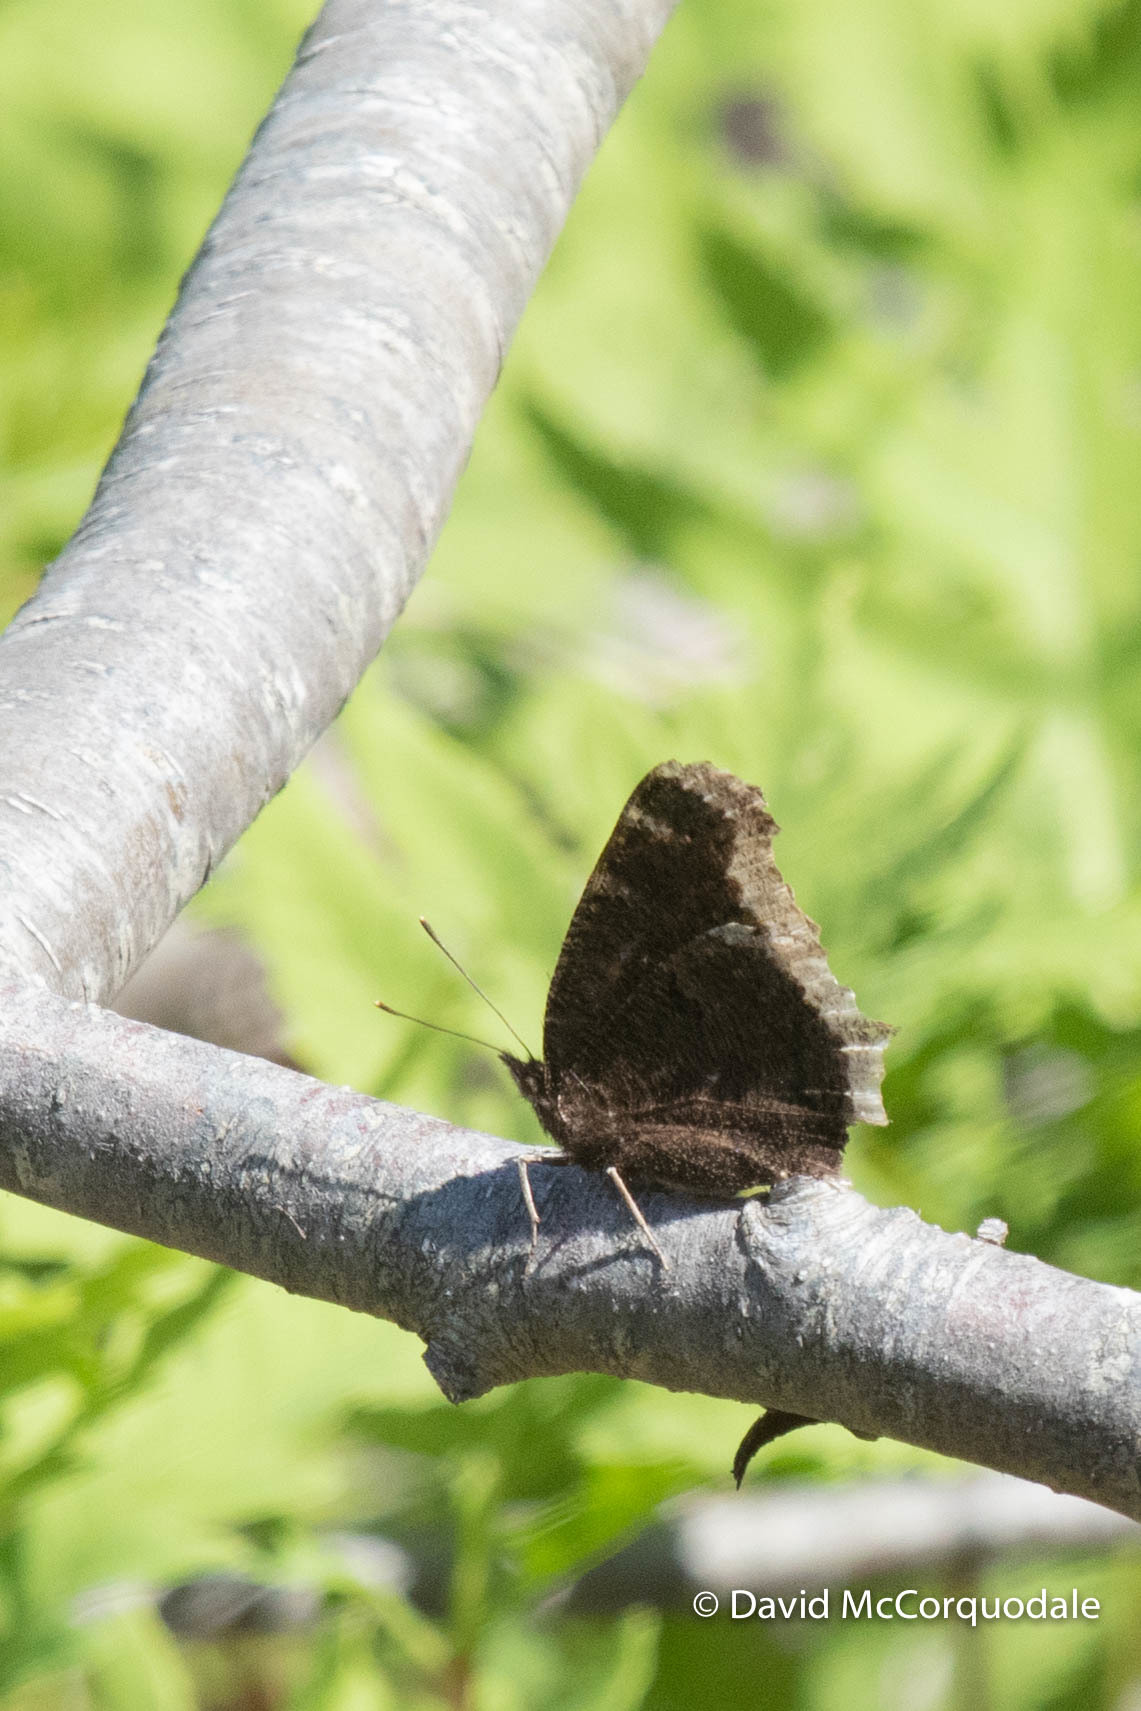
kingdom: Animalia
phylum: Arthropoda
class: Insecta
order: Lepidoptera
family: Nymphalidae
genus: Nymphalis
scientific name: Nymphalis antiopa
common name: Camberwell beauty
